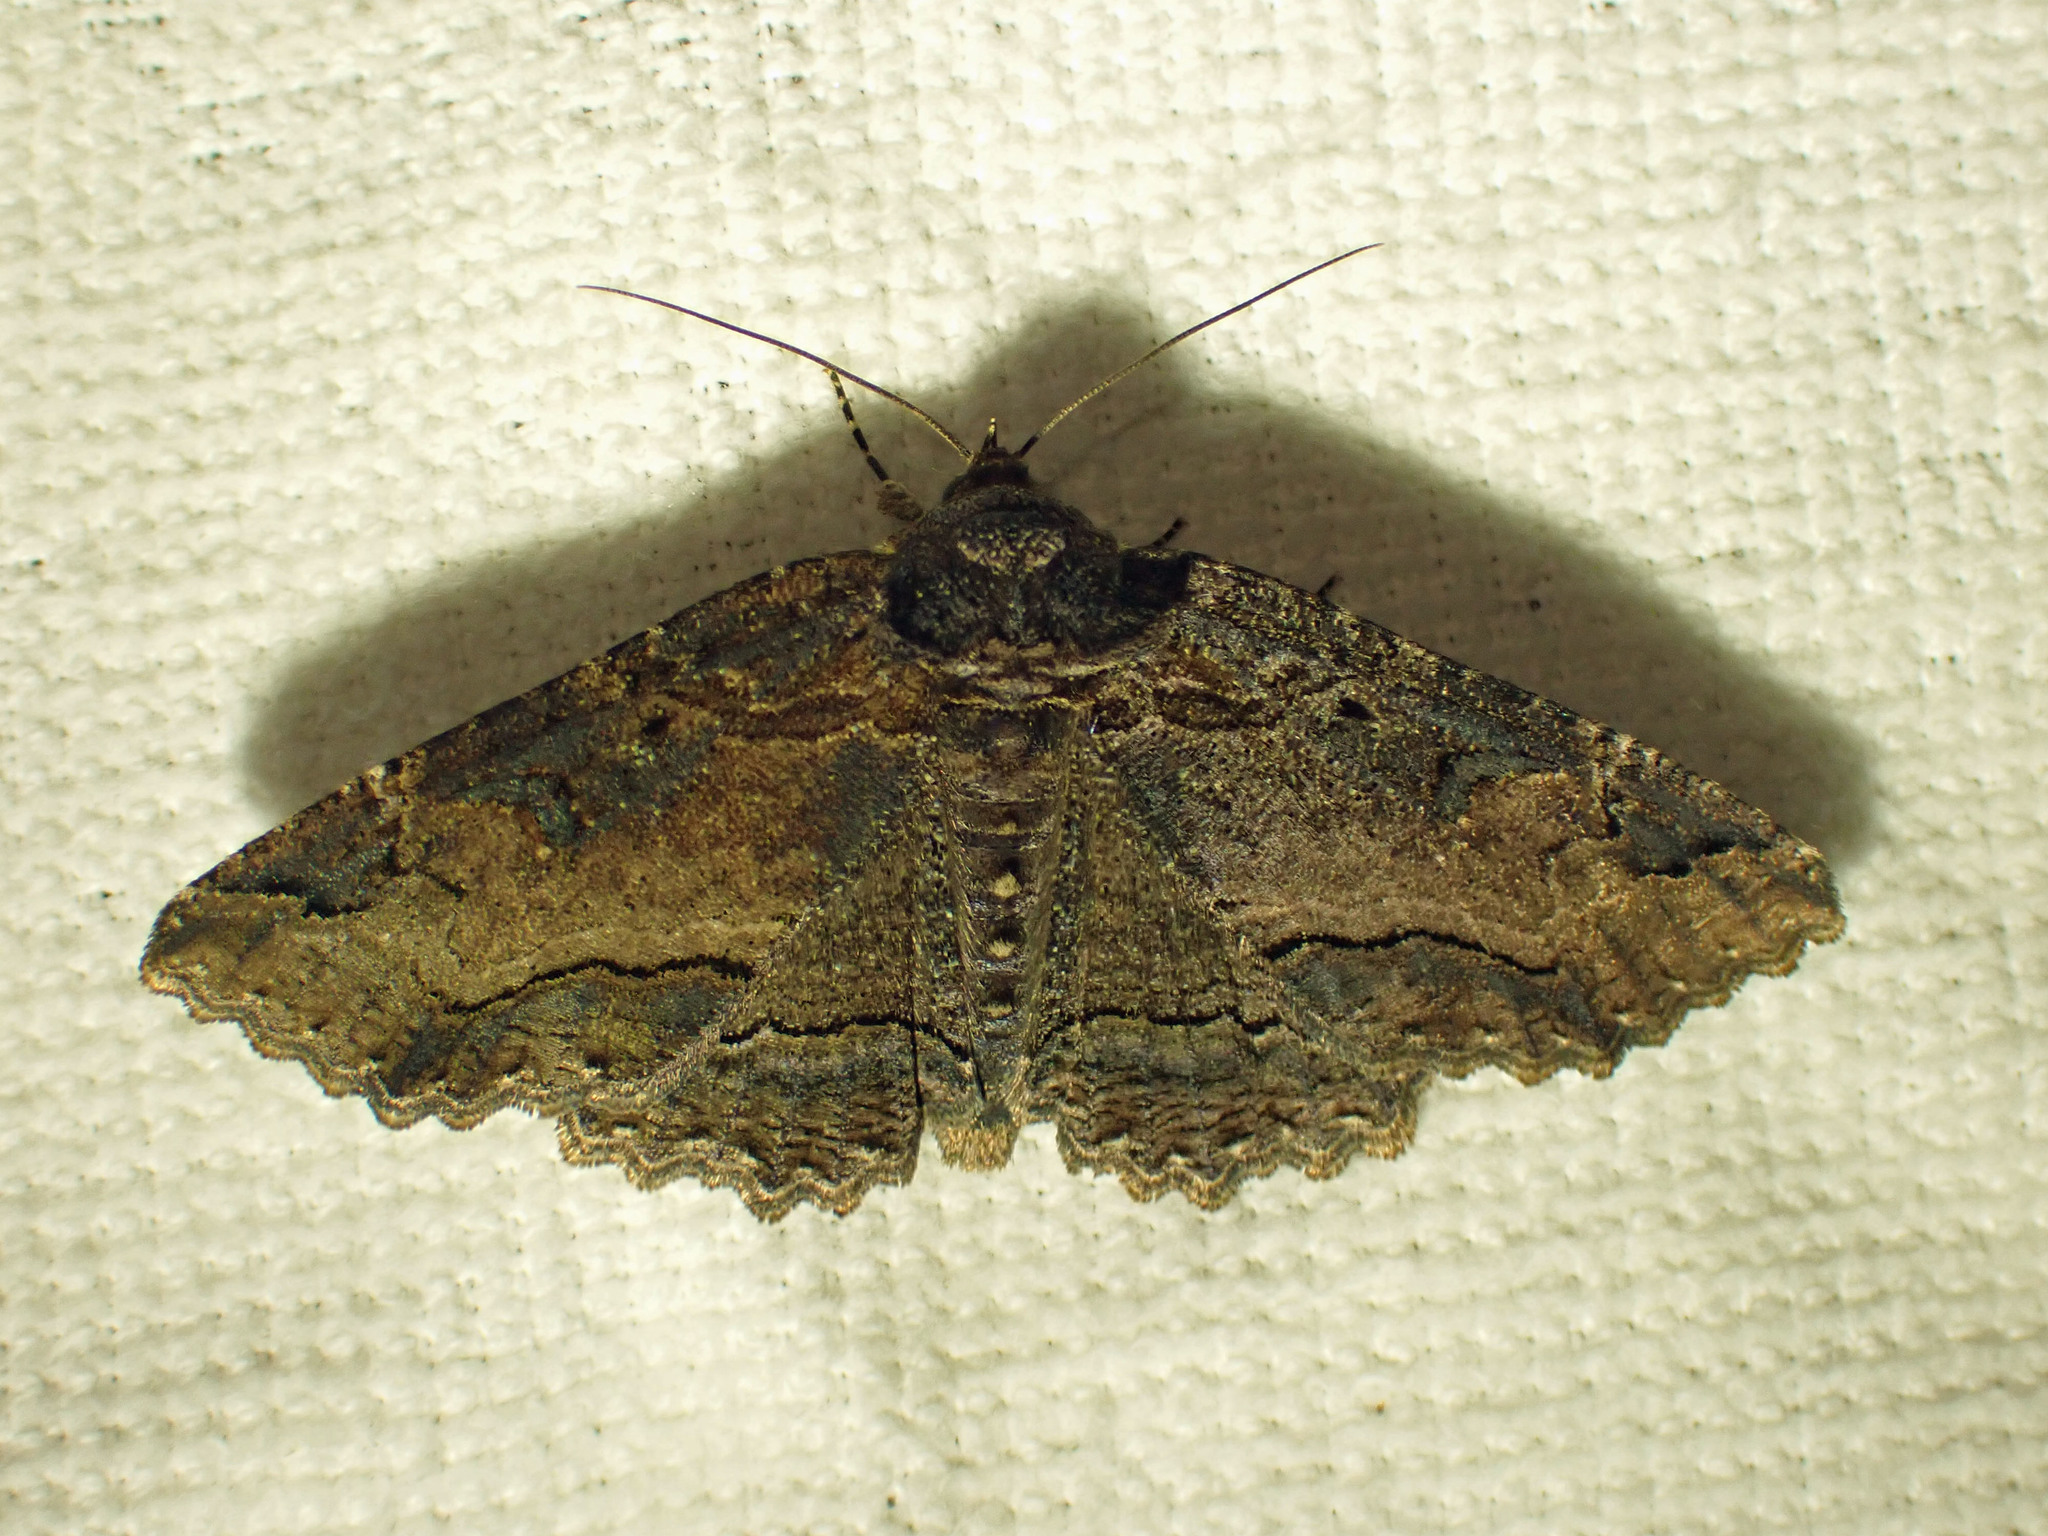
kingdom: Animalia
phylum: Arthropoda
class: Insecta
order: Lepidoptera
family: Erebidae
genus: Zale
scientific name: Zale minerea
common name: Colorful zale moth
